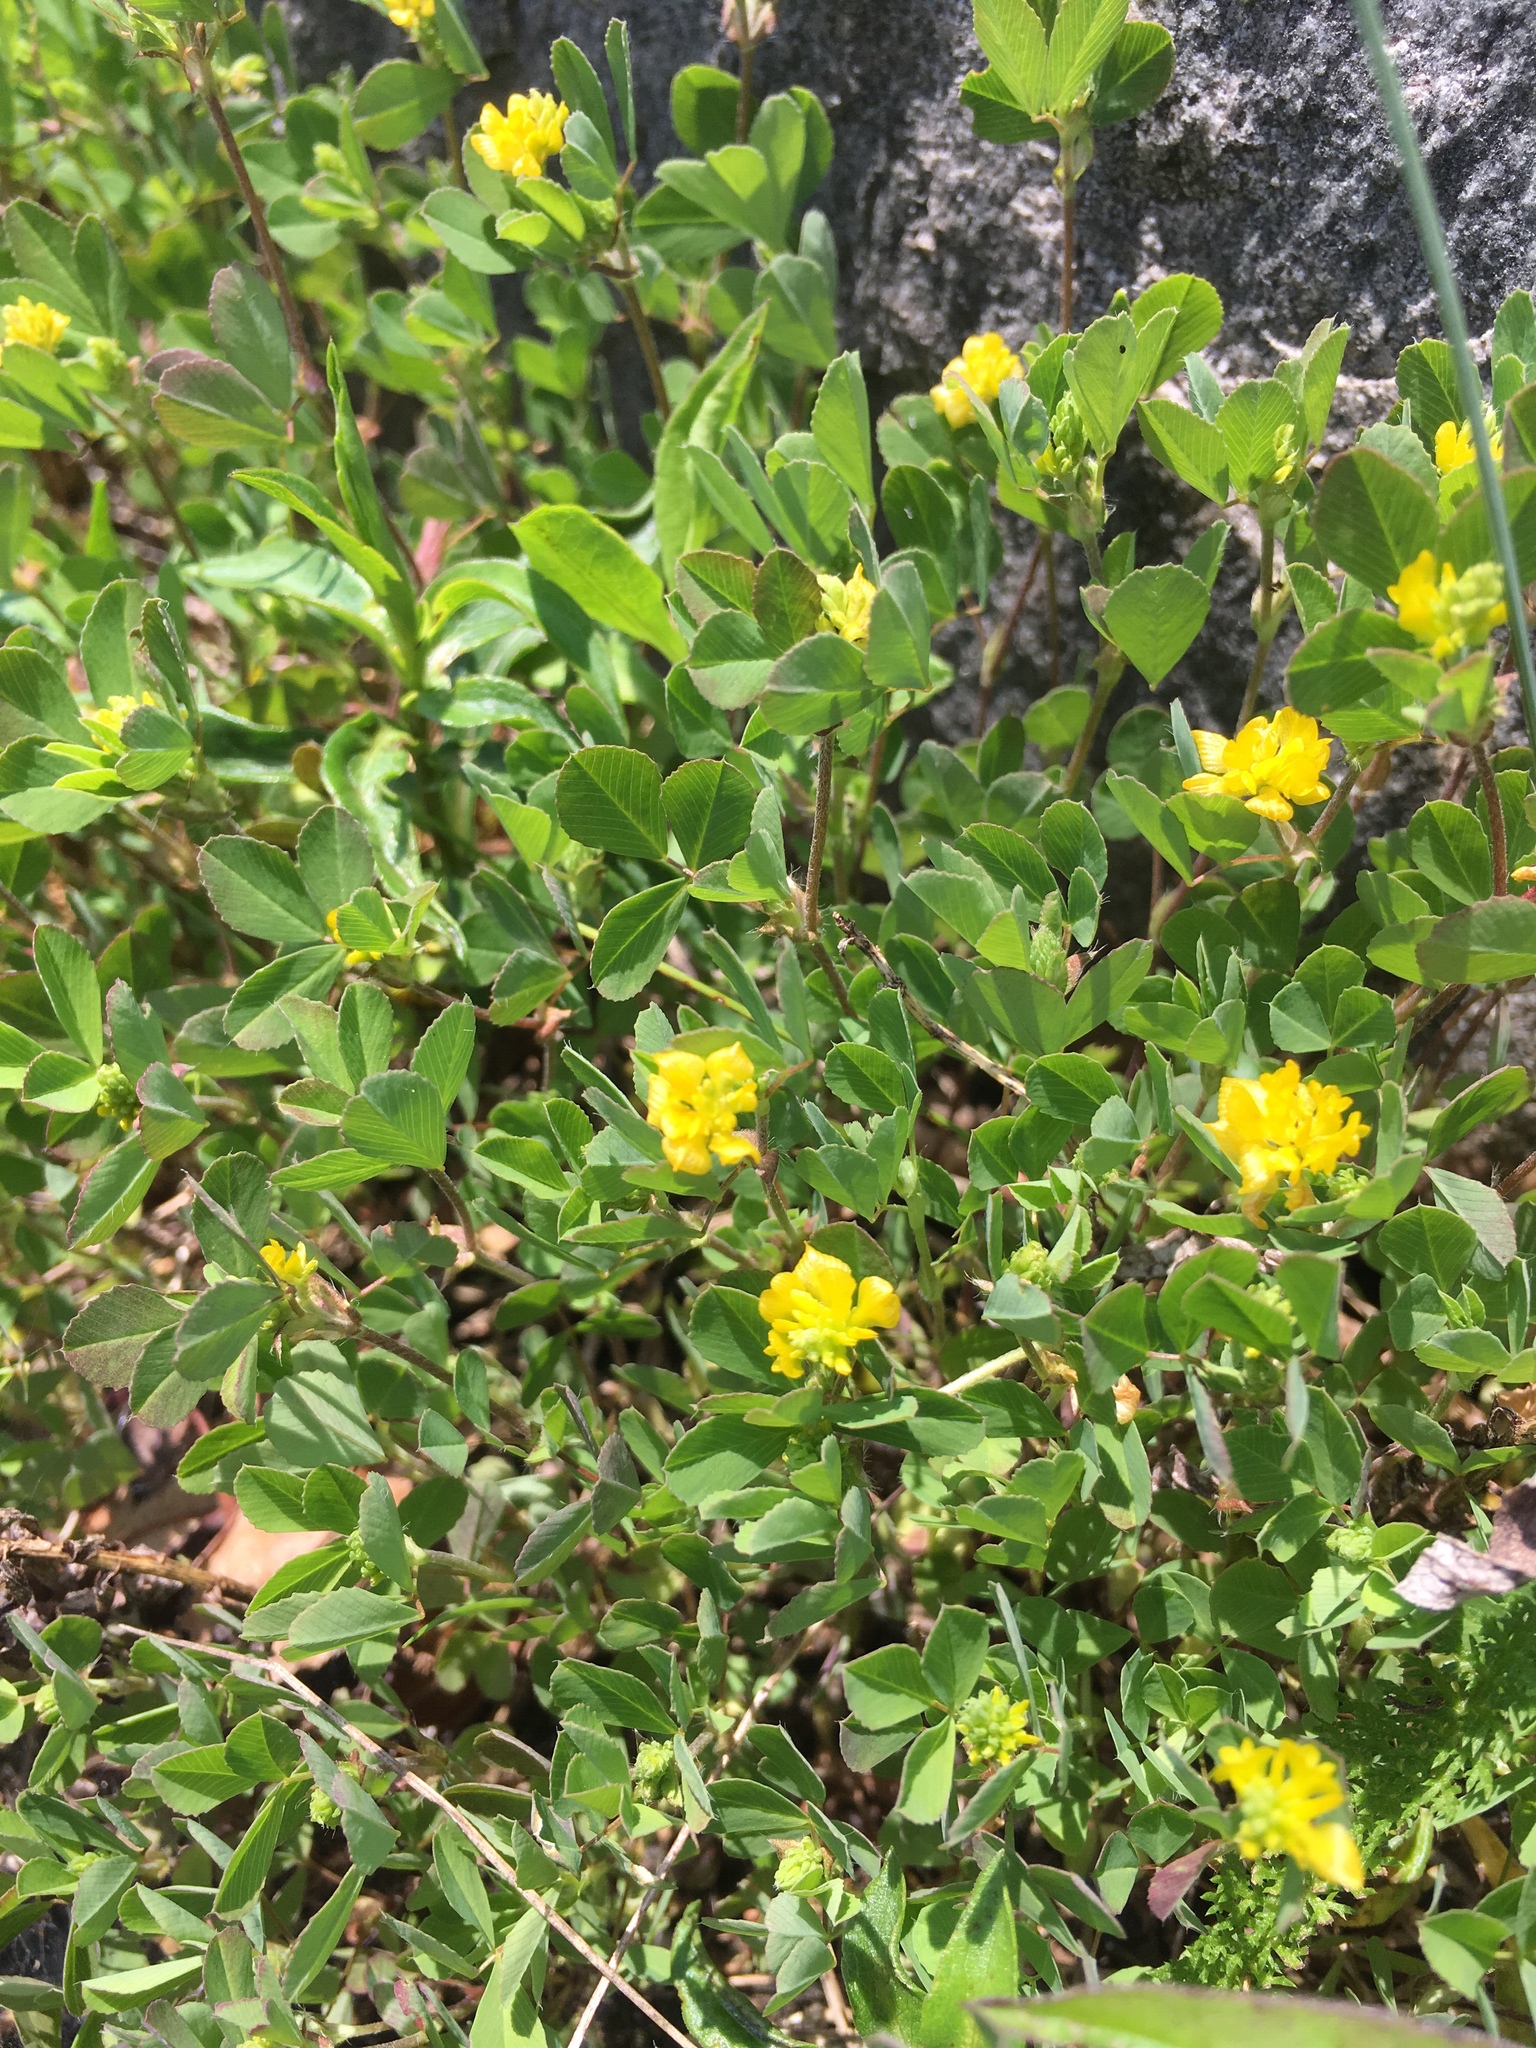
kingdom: Plantae
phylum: Tracheophyta
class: Magnoliopsida
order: Fabales
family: Fabaceae
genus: Trifolium
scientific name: Trifolium campestre
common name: Field clover
